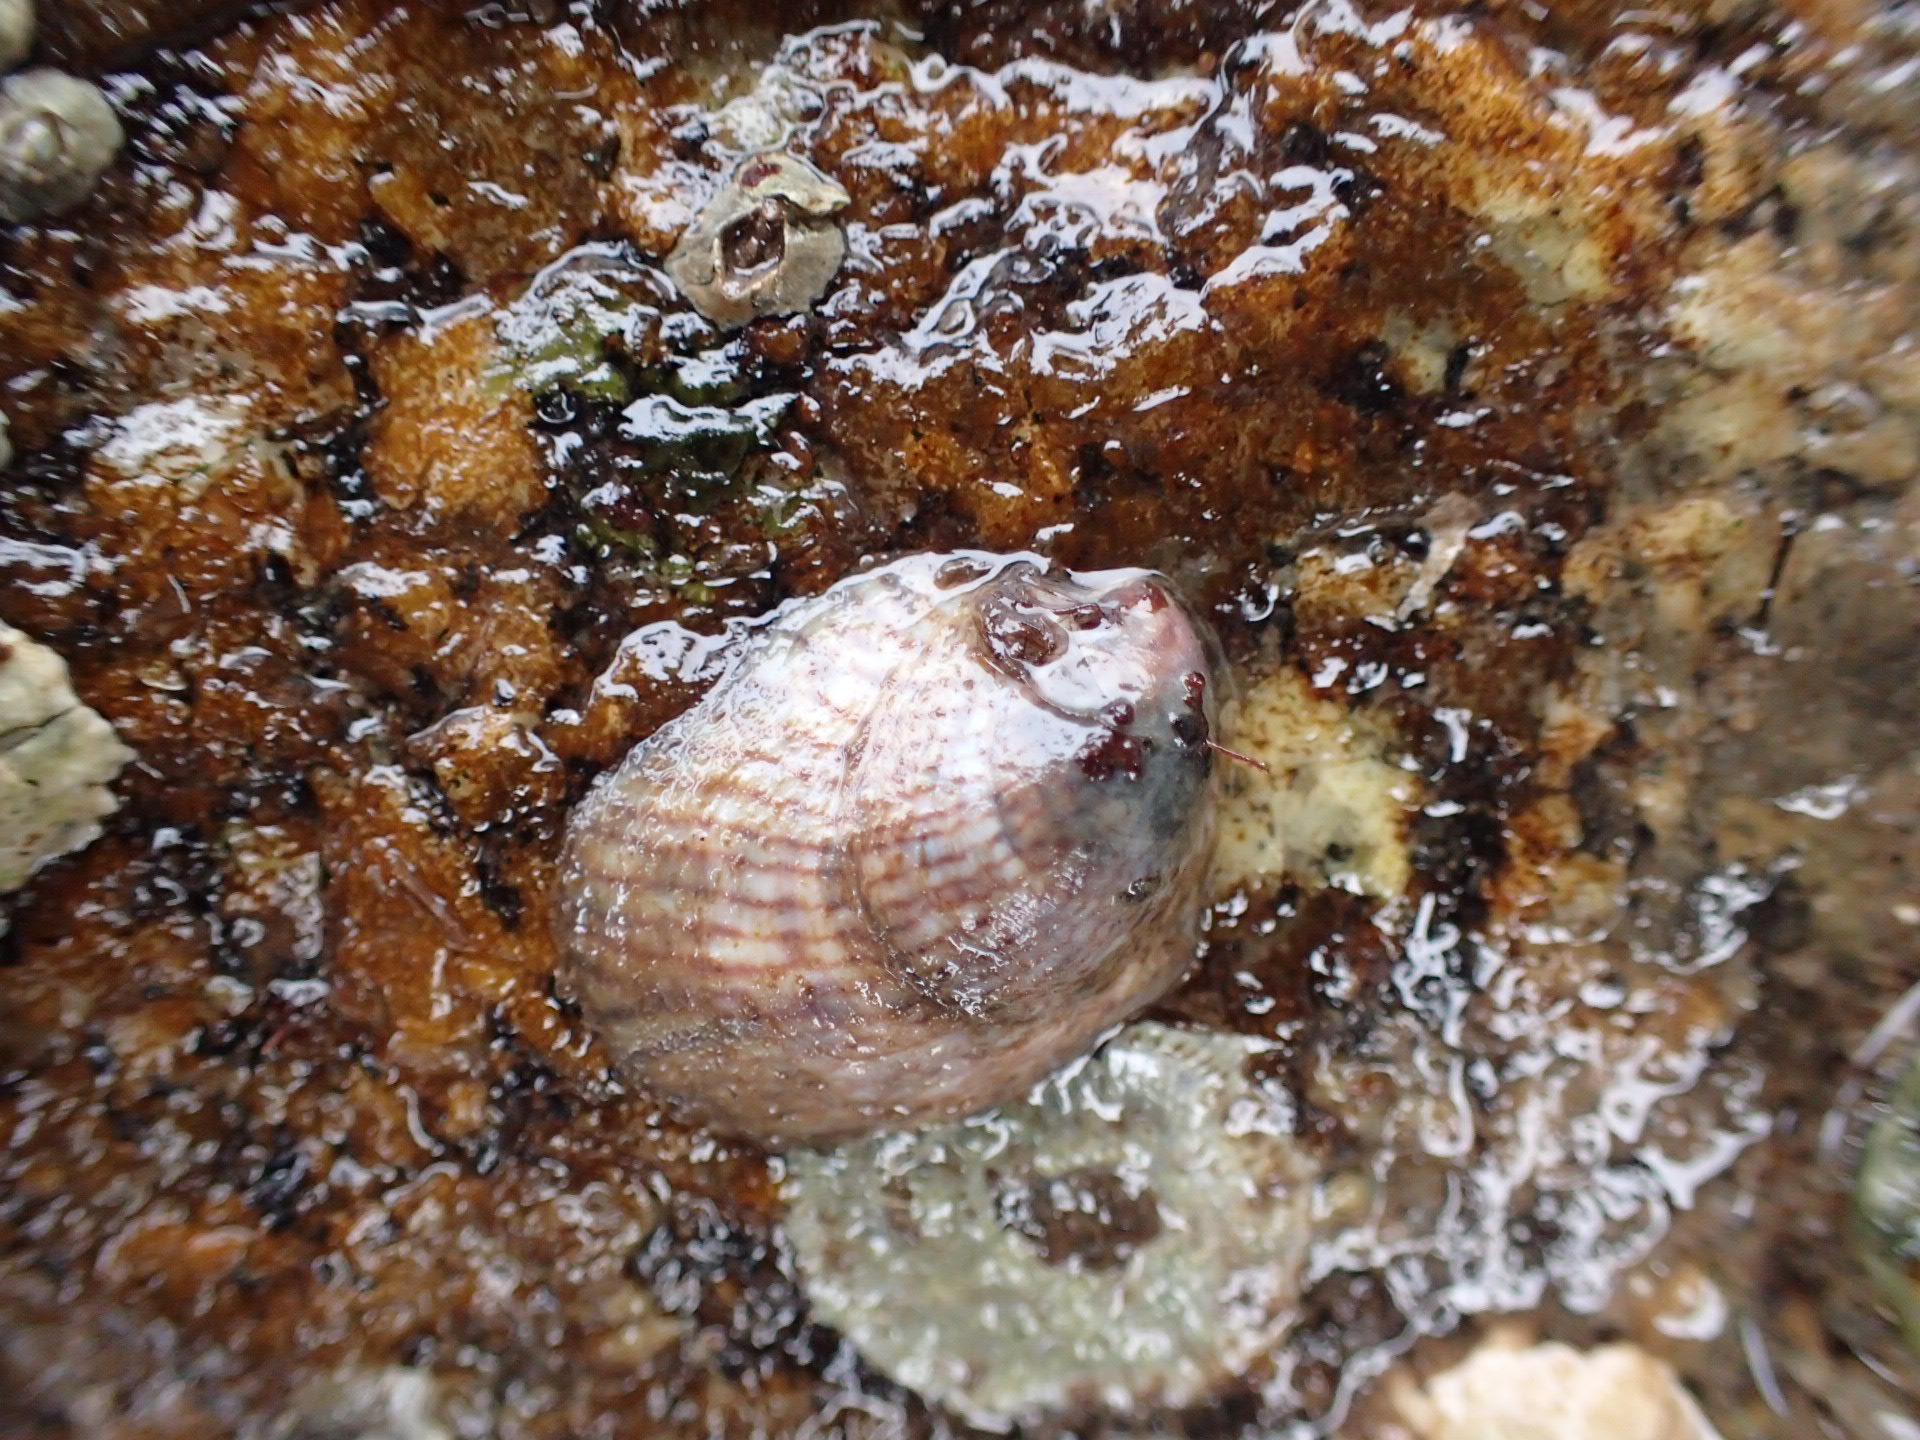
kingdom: Animalia
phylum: Mollusca
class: Gastropoda
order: Littorinimorpha
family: Calyptraeidae
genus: Crepidula
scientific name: Crepidula fornicata
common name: Slipper limpet
